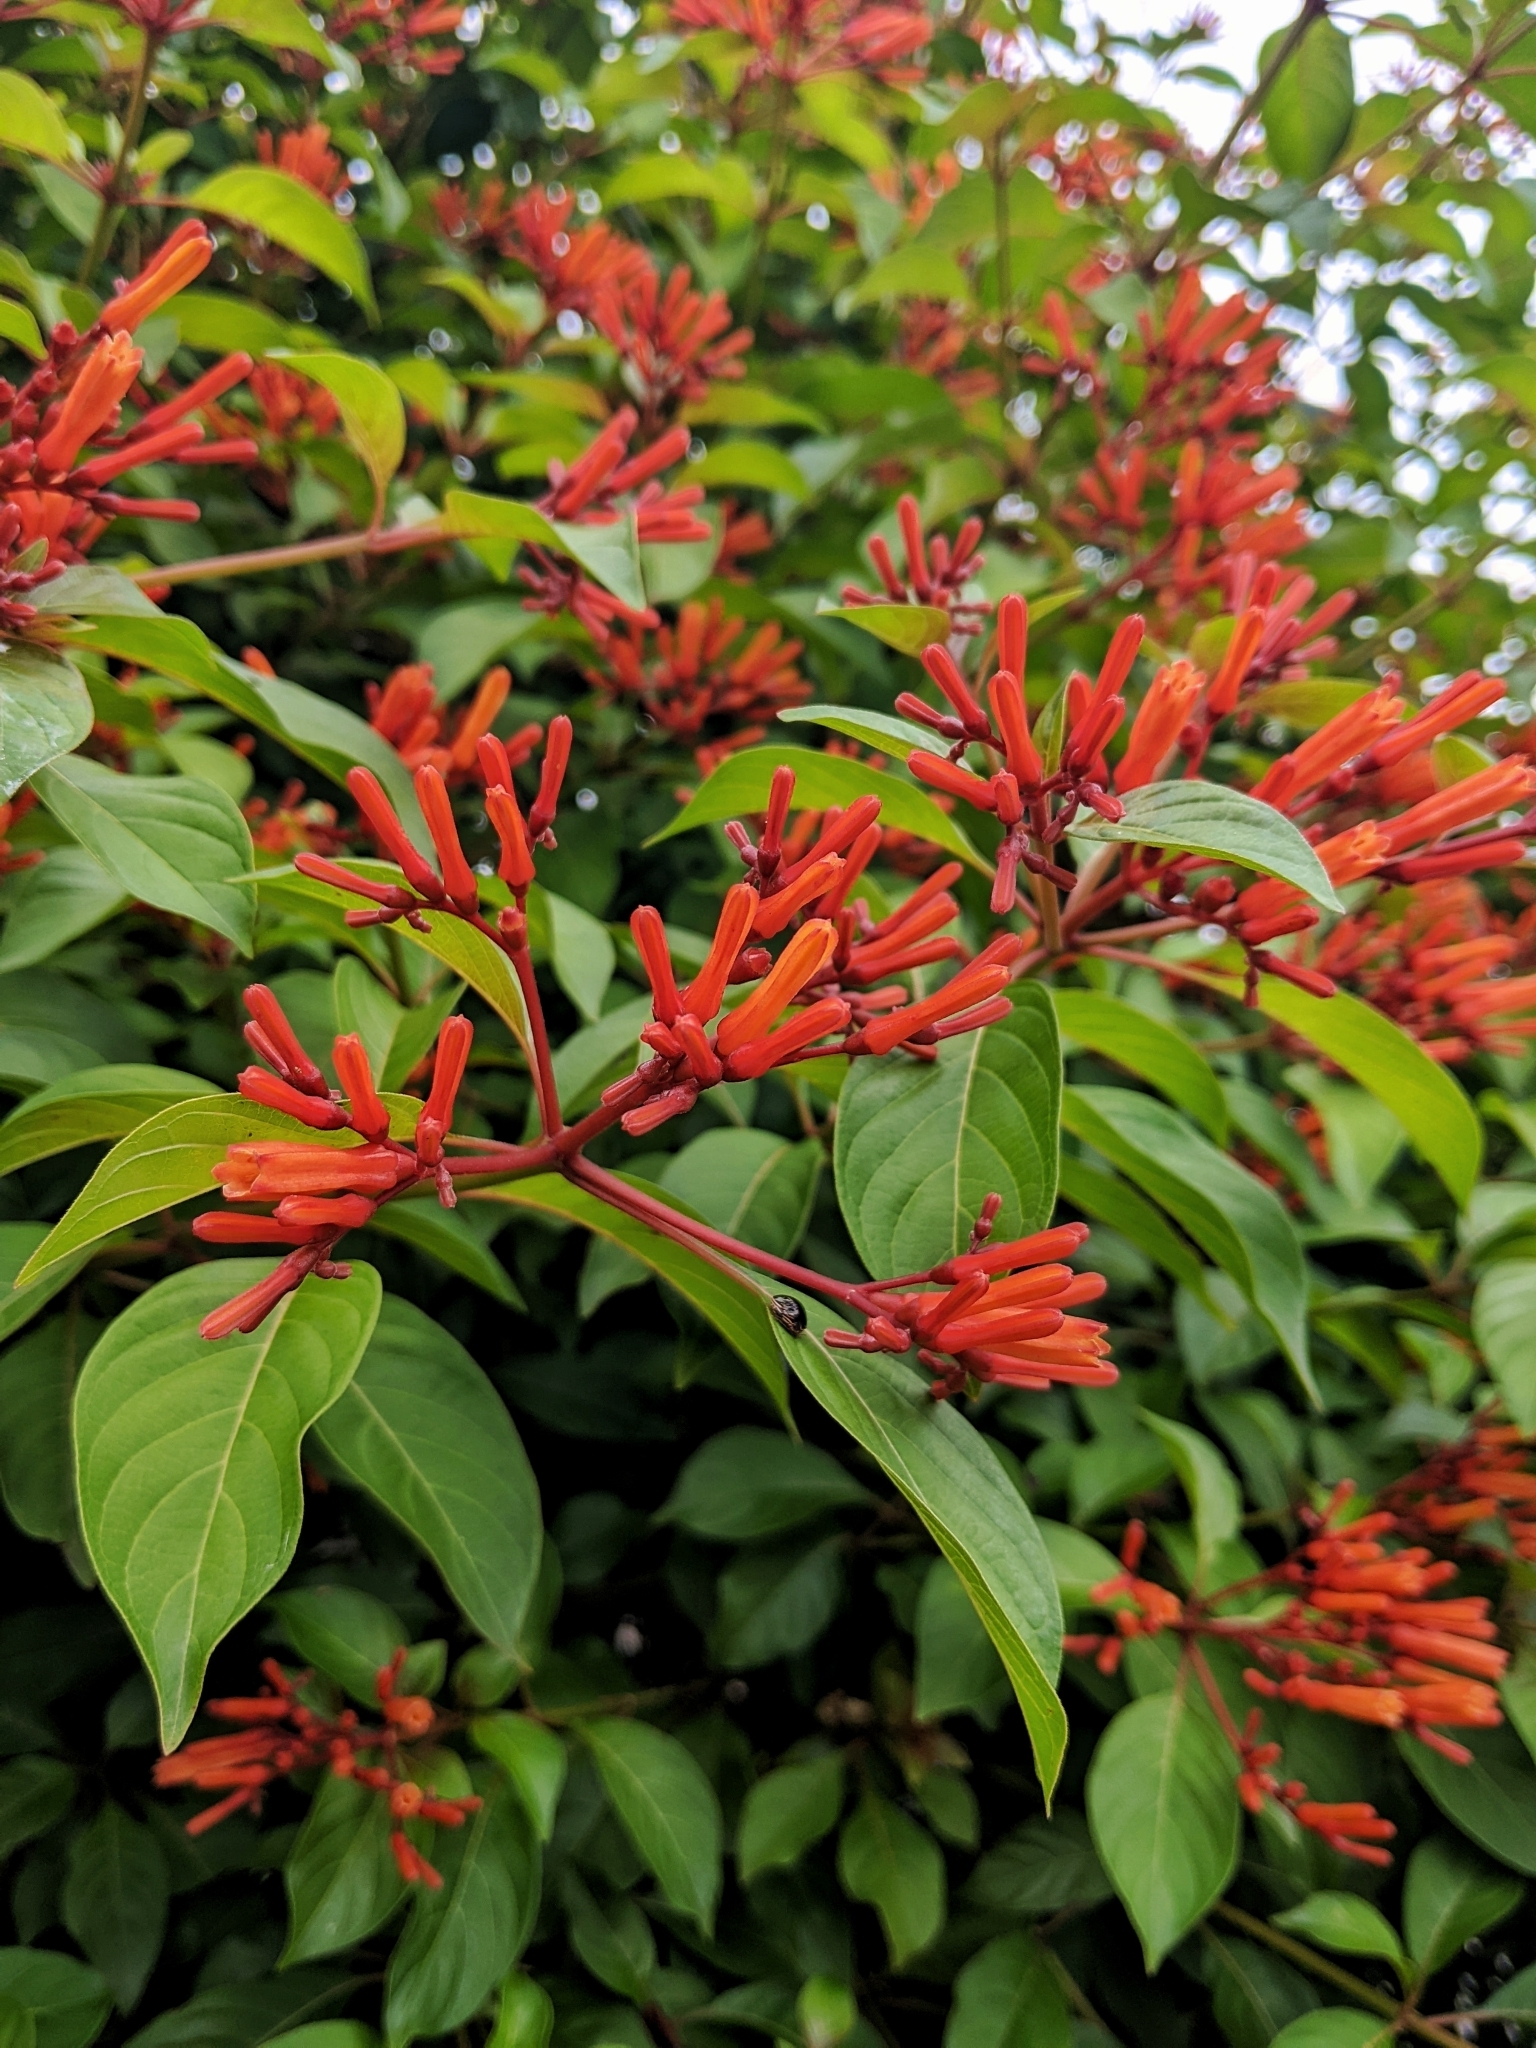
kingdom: Plantae
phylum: Tracheophyta
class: Magnoliopsida
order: Gentianales
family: Rubiaceae
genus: Hamelia
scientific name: Hamelia patens
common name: Redhead
